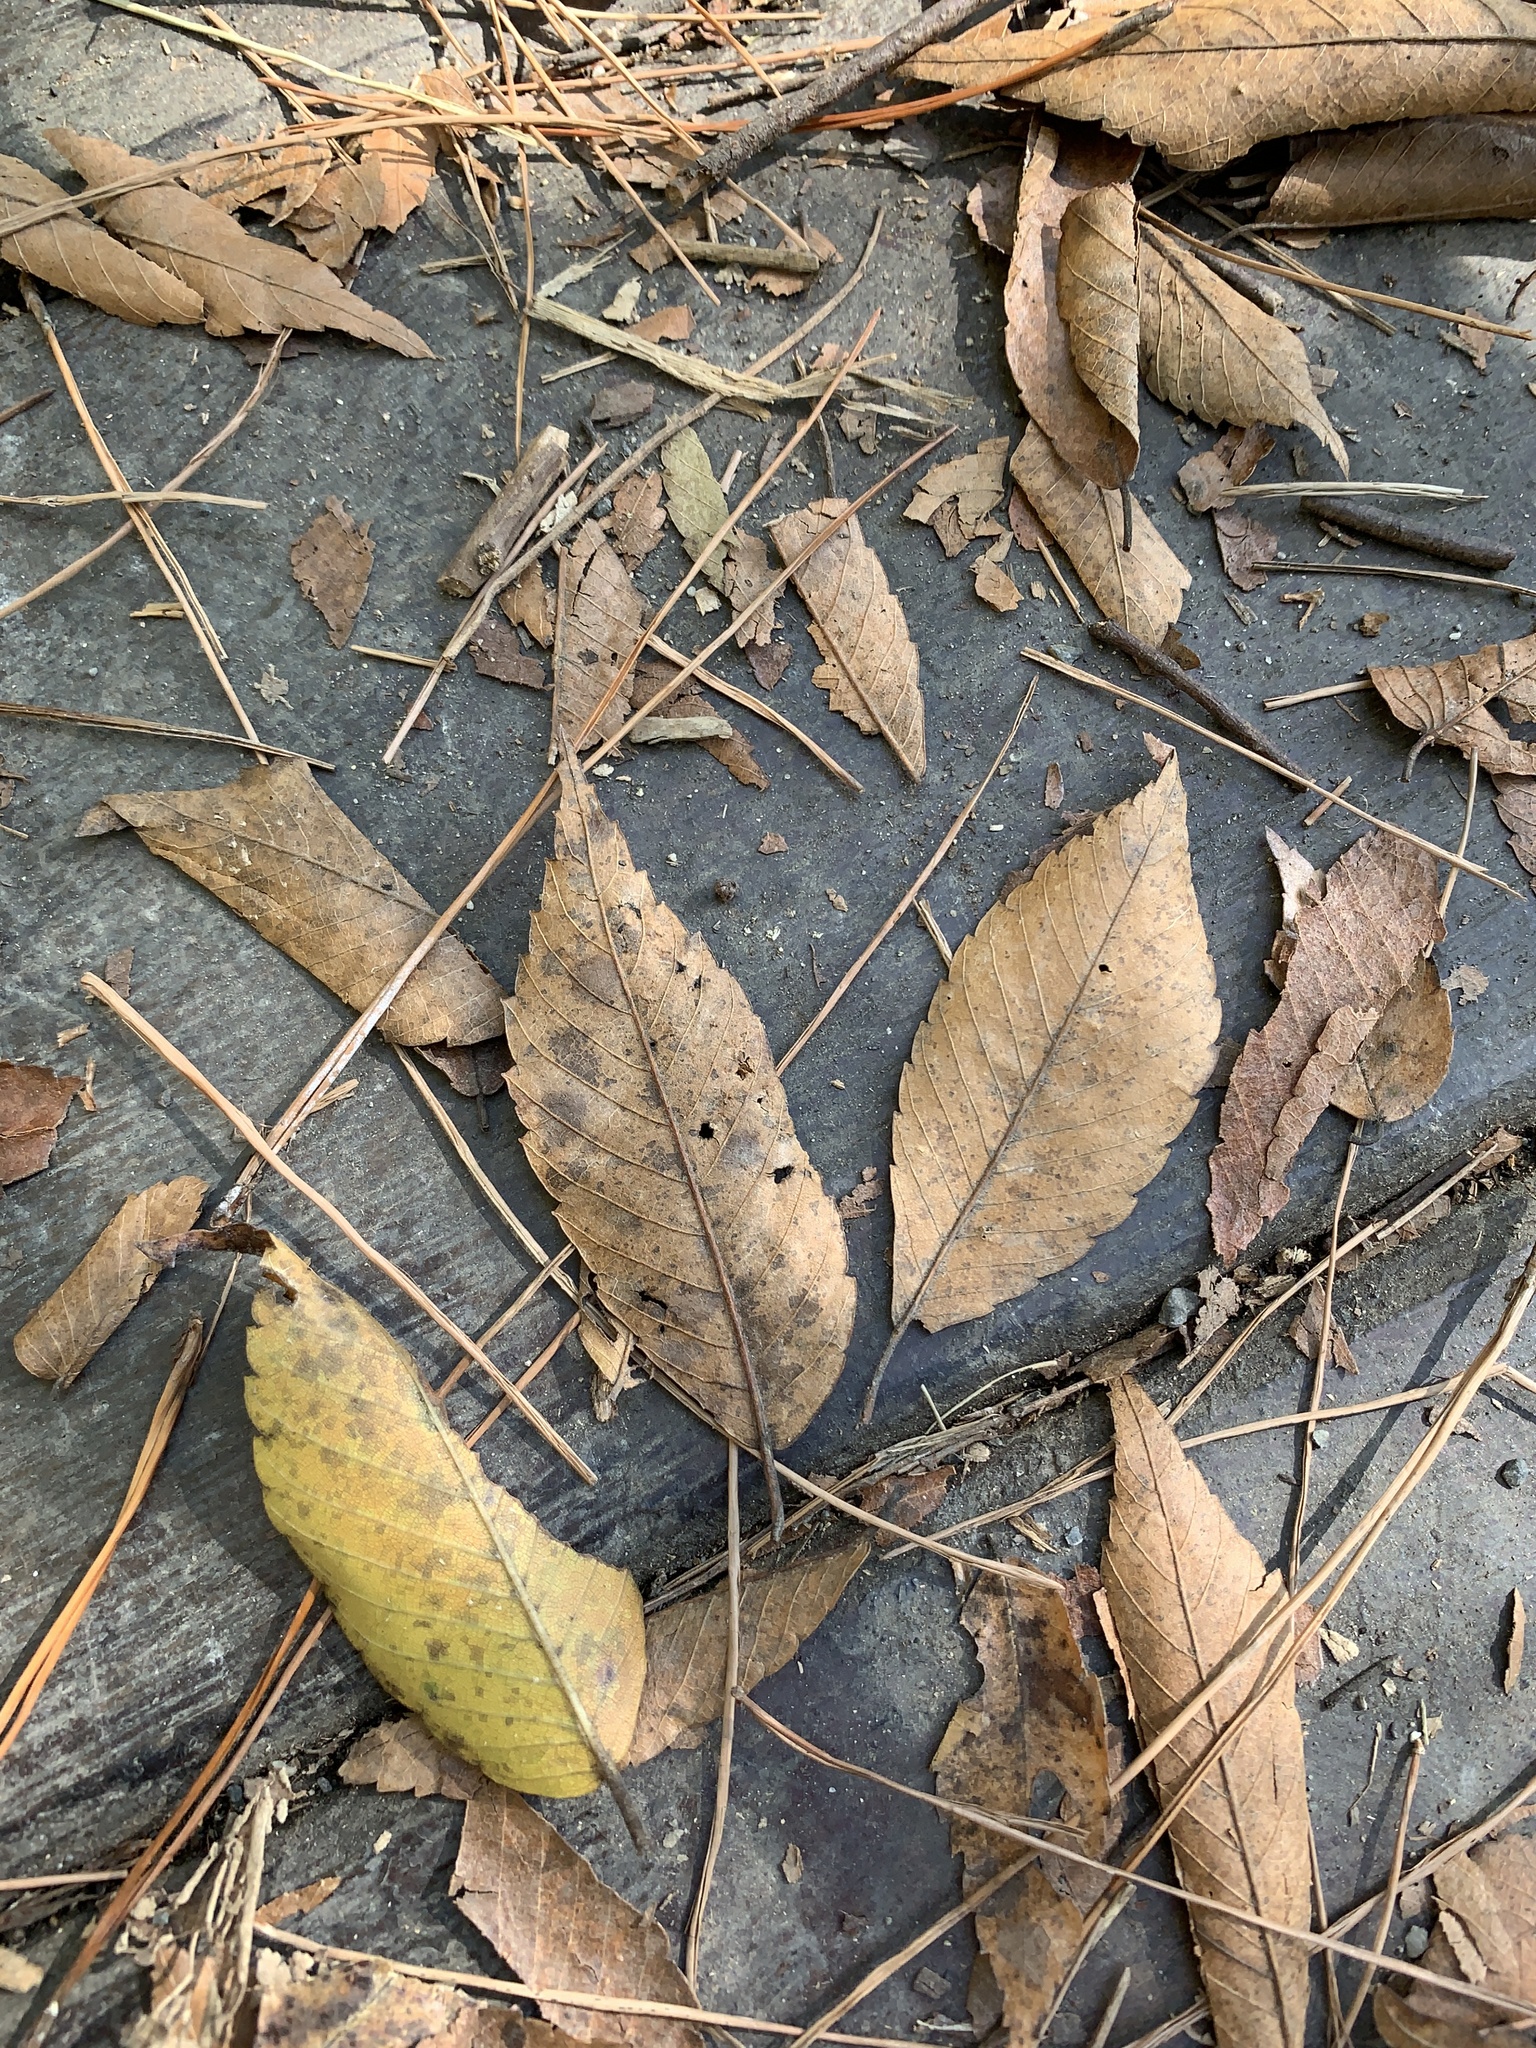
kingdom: Plantae
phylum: Tracheophyta
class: Magnoliopsida
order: Rosales
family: Ulmaceae
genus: Zelkova
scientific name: Zelkova serrata
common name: Japanese zelkova
